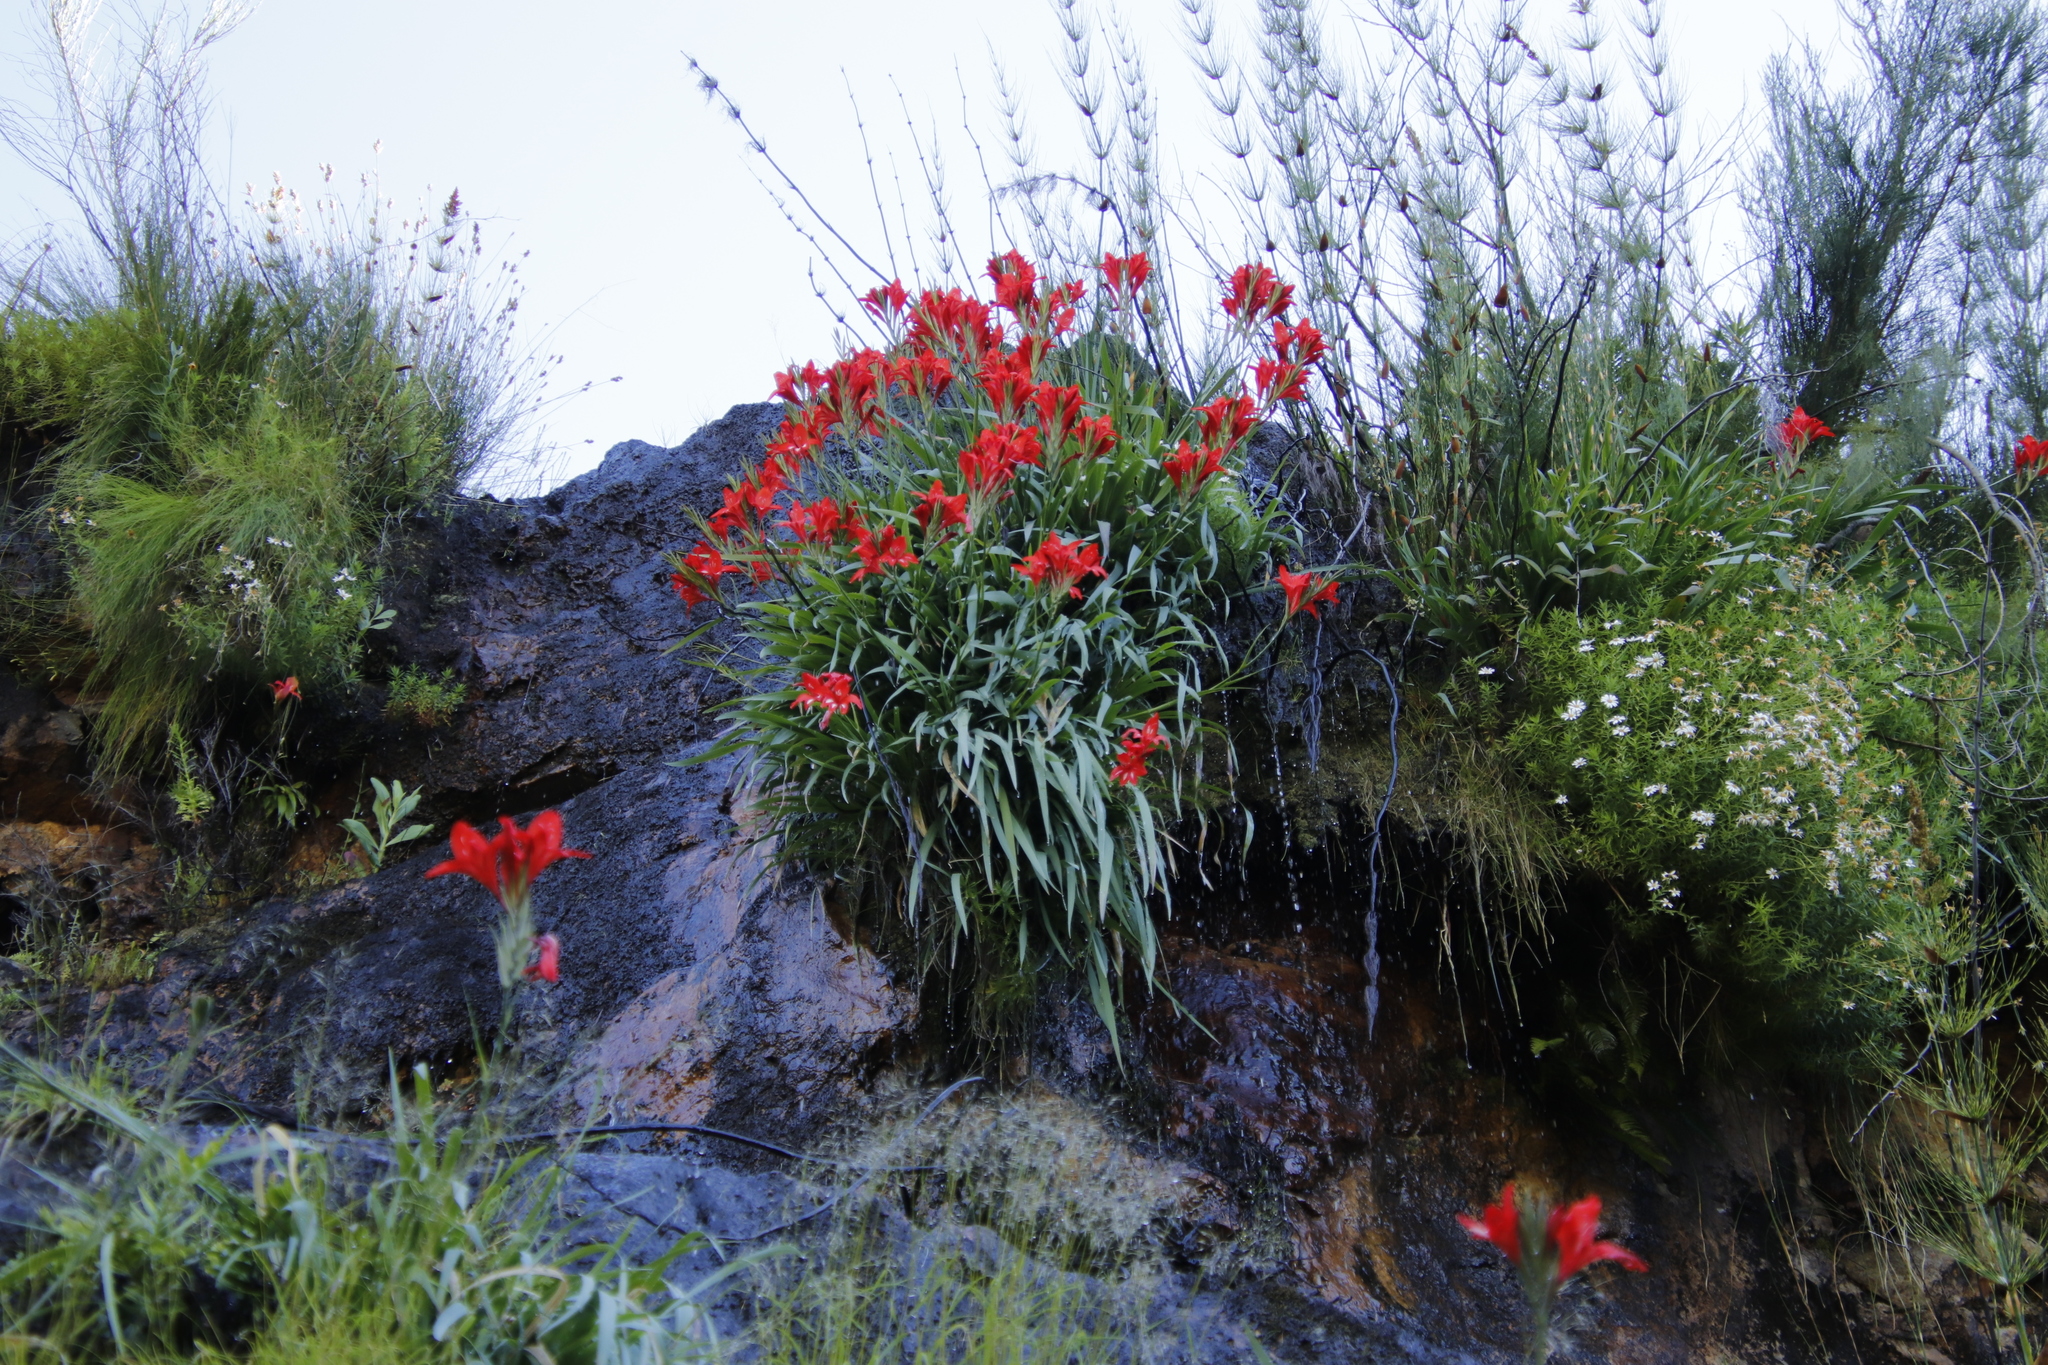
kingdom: Plantae
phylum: Tracheophyta
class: Liliopsida
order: Asparagales
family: Iridaceae
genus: Gladiolus
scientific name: Gladiolus cardinalis
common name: New year-lily
